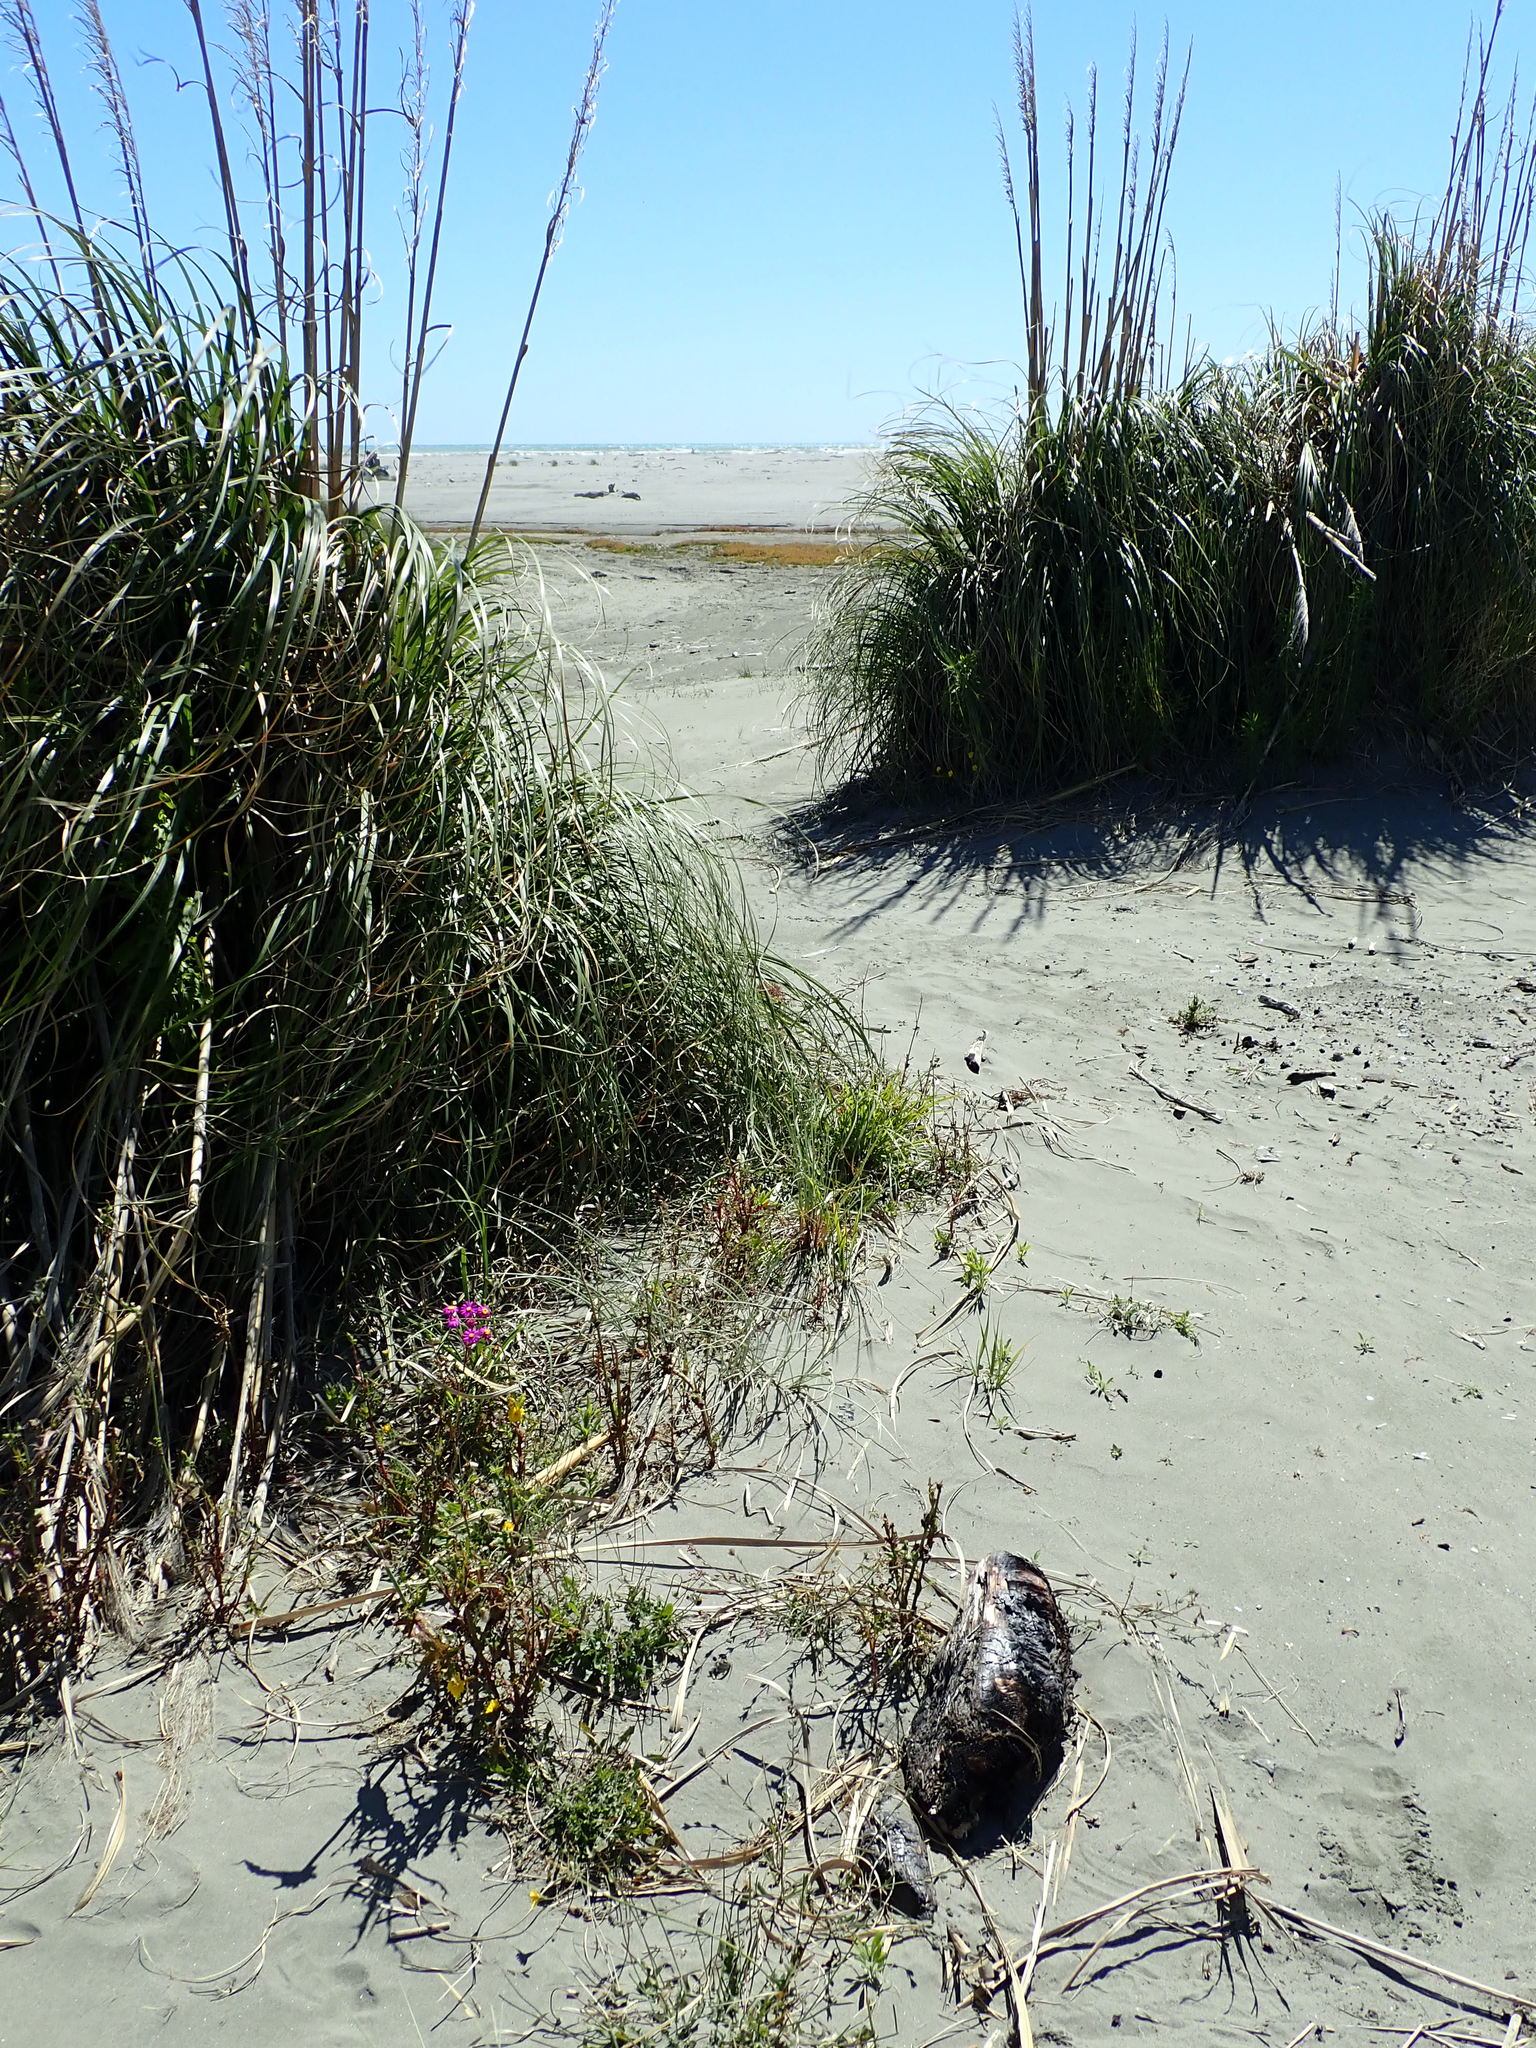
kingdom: Animalia
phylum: Arthropoda
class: Arachnida
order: Araneae
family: Theridiidae
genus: Steatoda
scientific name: Steatoda capensis
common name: Cobweb weaver
